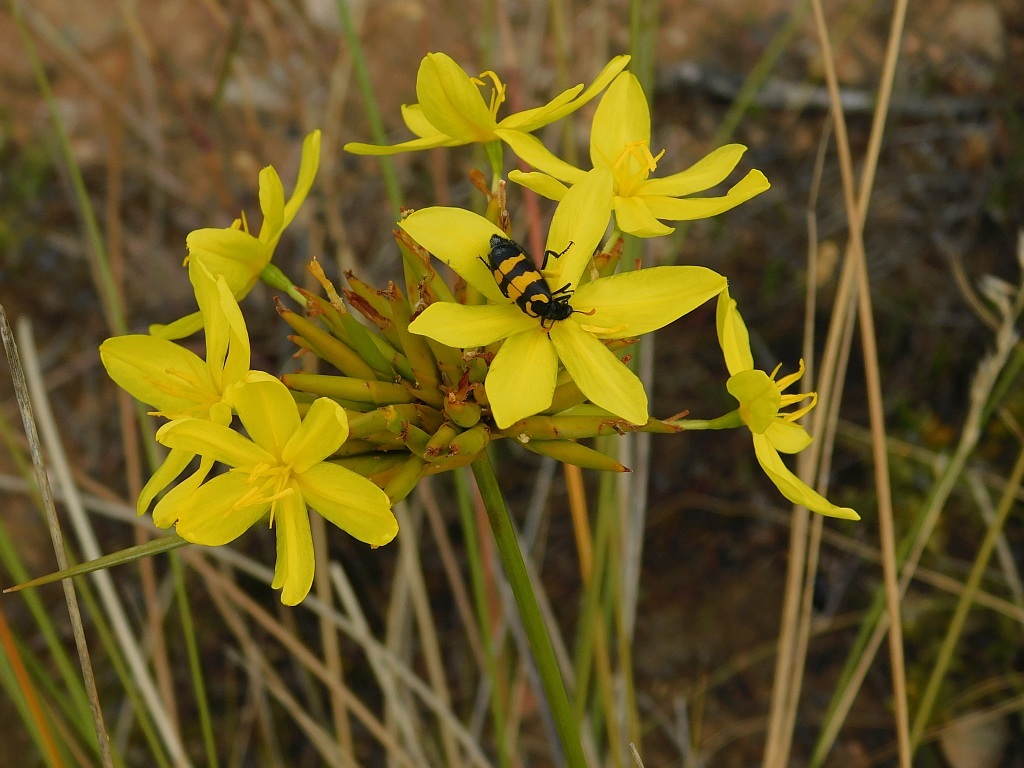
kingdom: Animalia
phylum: Arthropoda
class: Insecta
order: Coleoptera
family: Meloidae
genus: Meloe
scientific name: Meloe lunata
